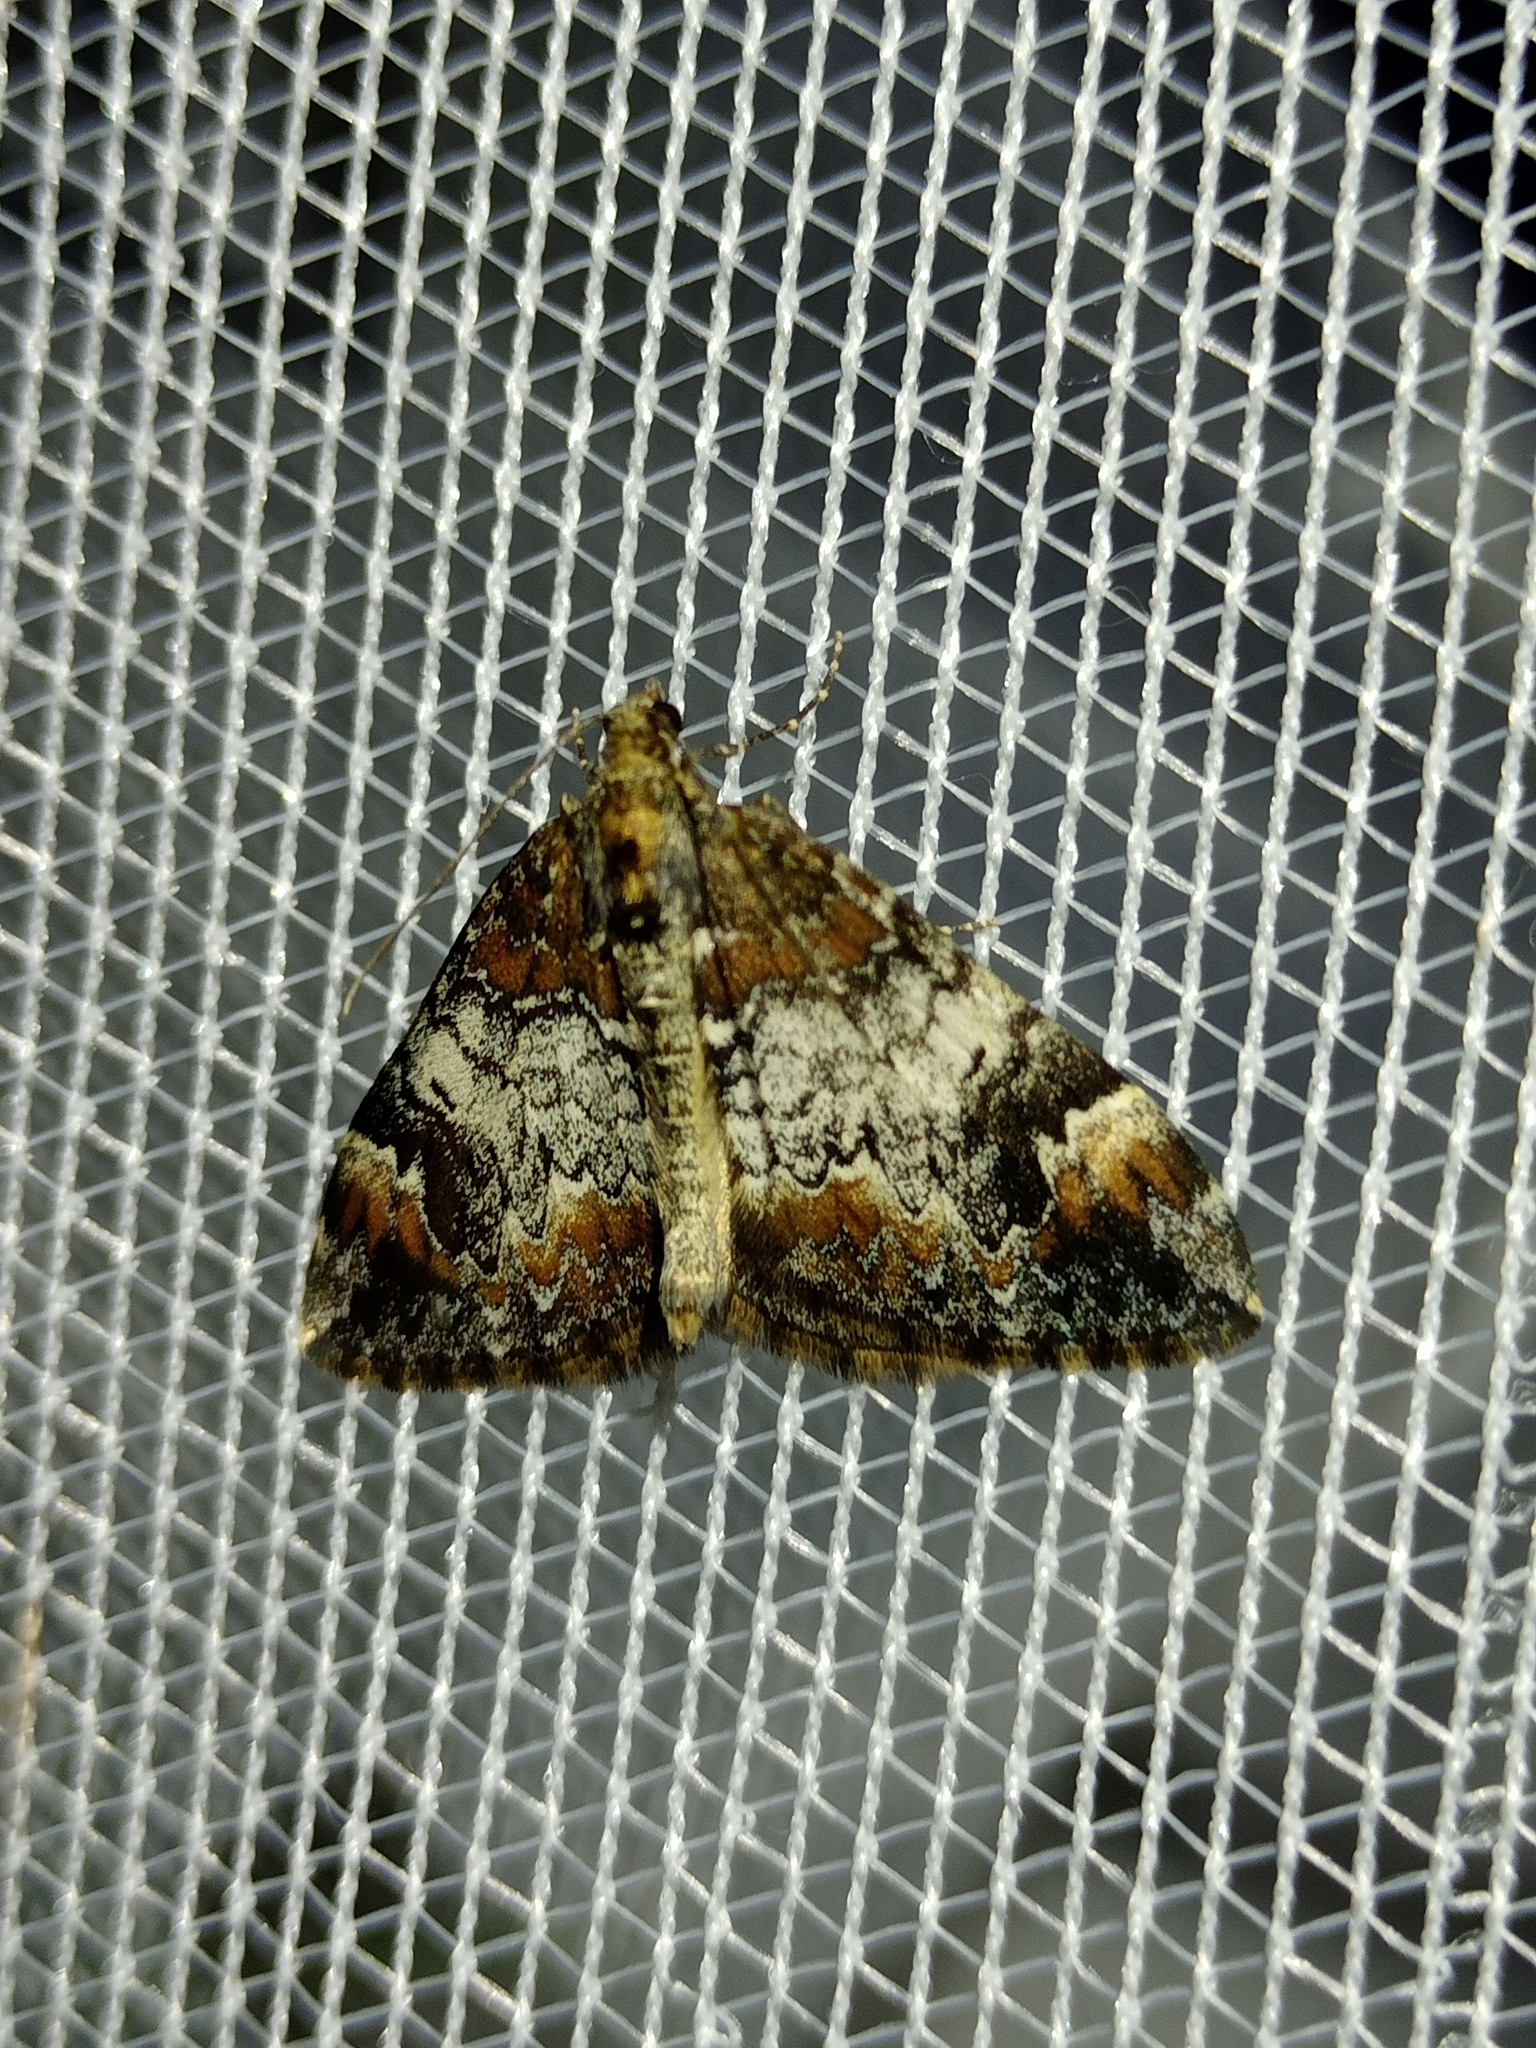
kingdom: Animalia
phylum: Arthropoda
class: Insecta
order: Lepidoptera
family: Geometridae
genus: Dysstroma
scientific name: Dysstroma truncata
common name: Common marbled carpet
